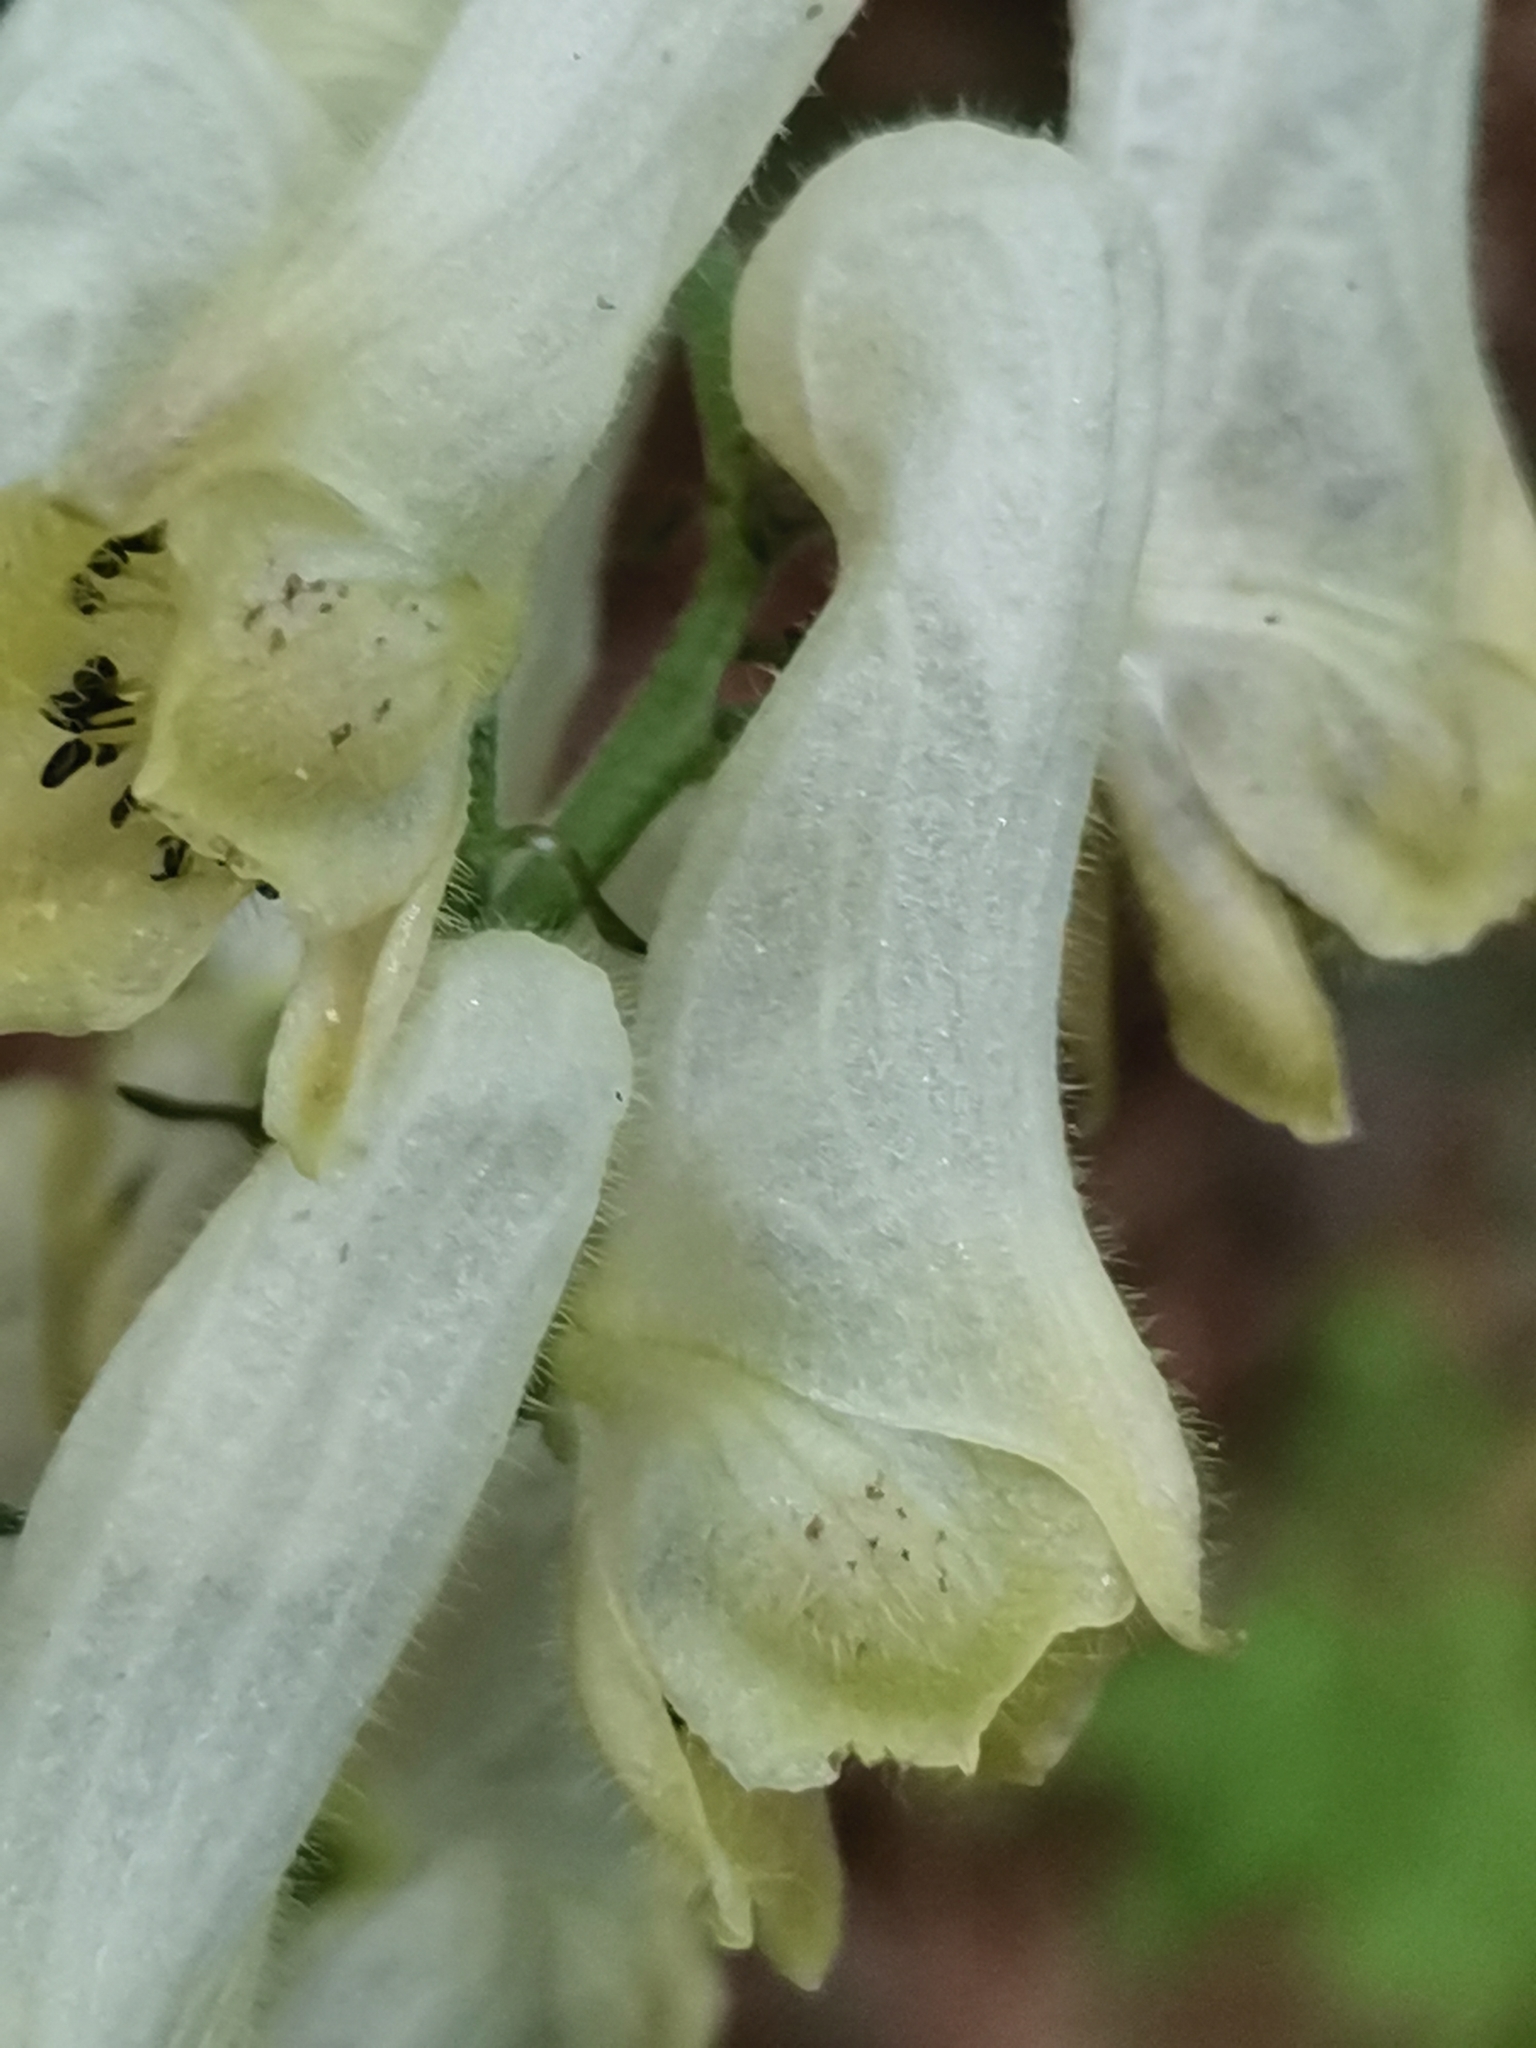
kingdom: Plantae
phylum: Tracheophyta
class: Magnoliopsida
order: Ranunculales
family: Ranunculaceae
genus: Aconitum
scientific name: Aconitum lycoctonum
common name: Wolf's-bane
